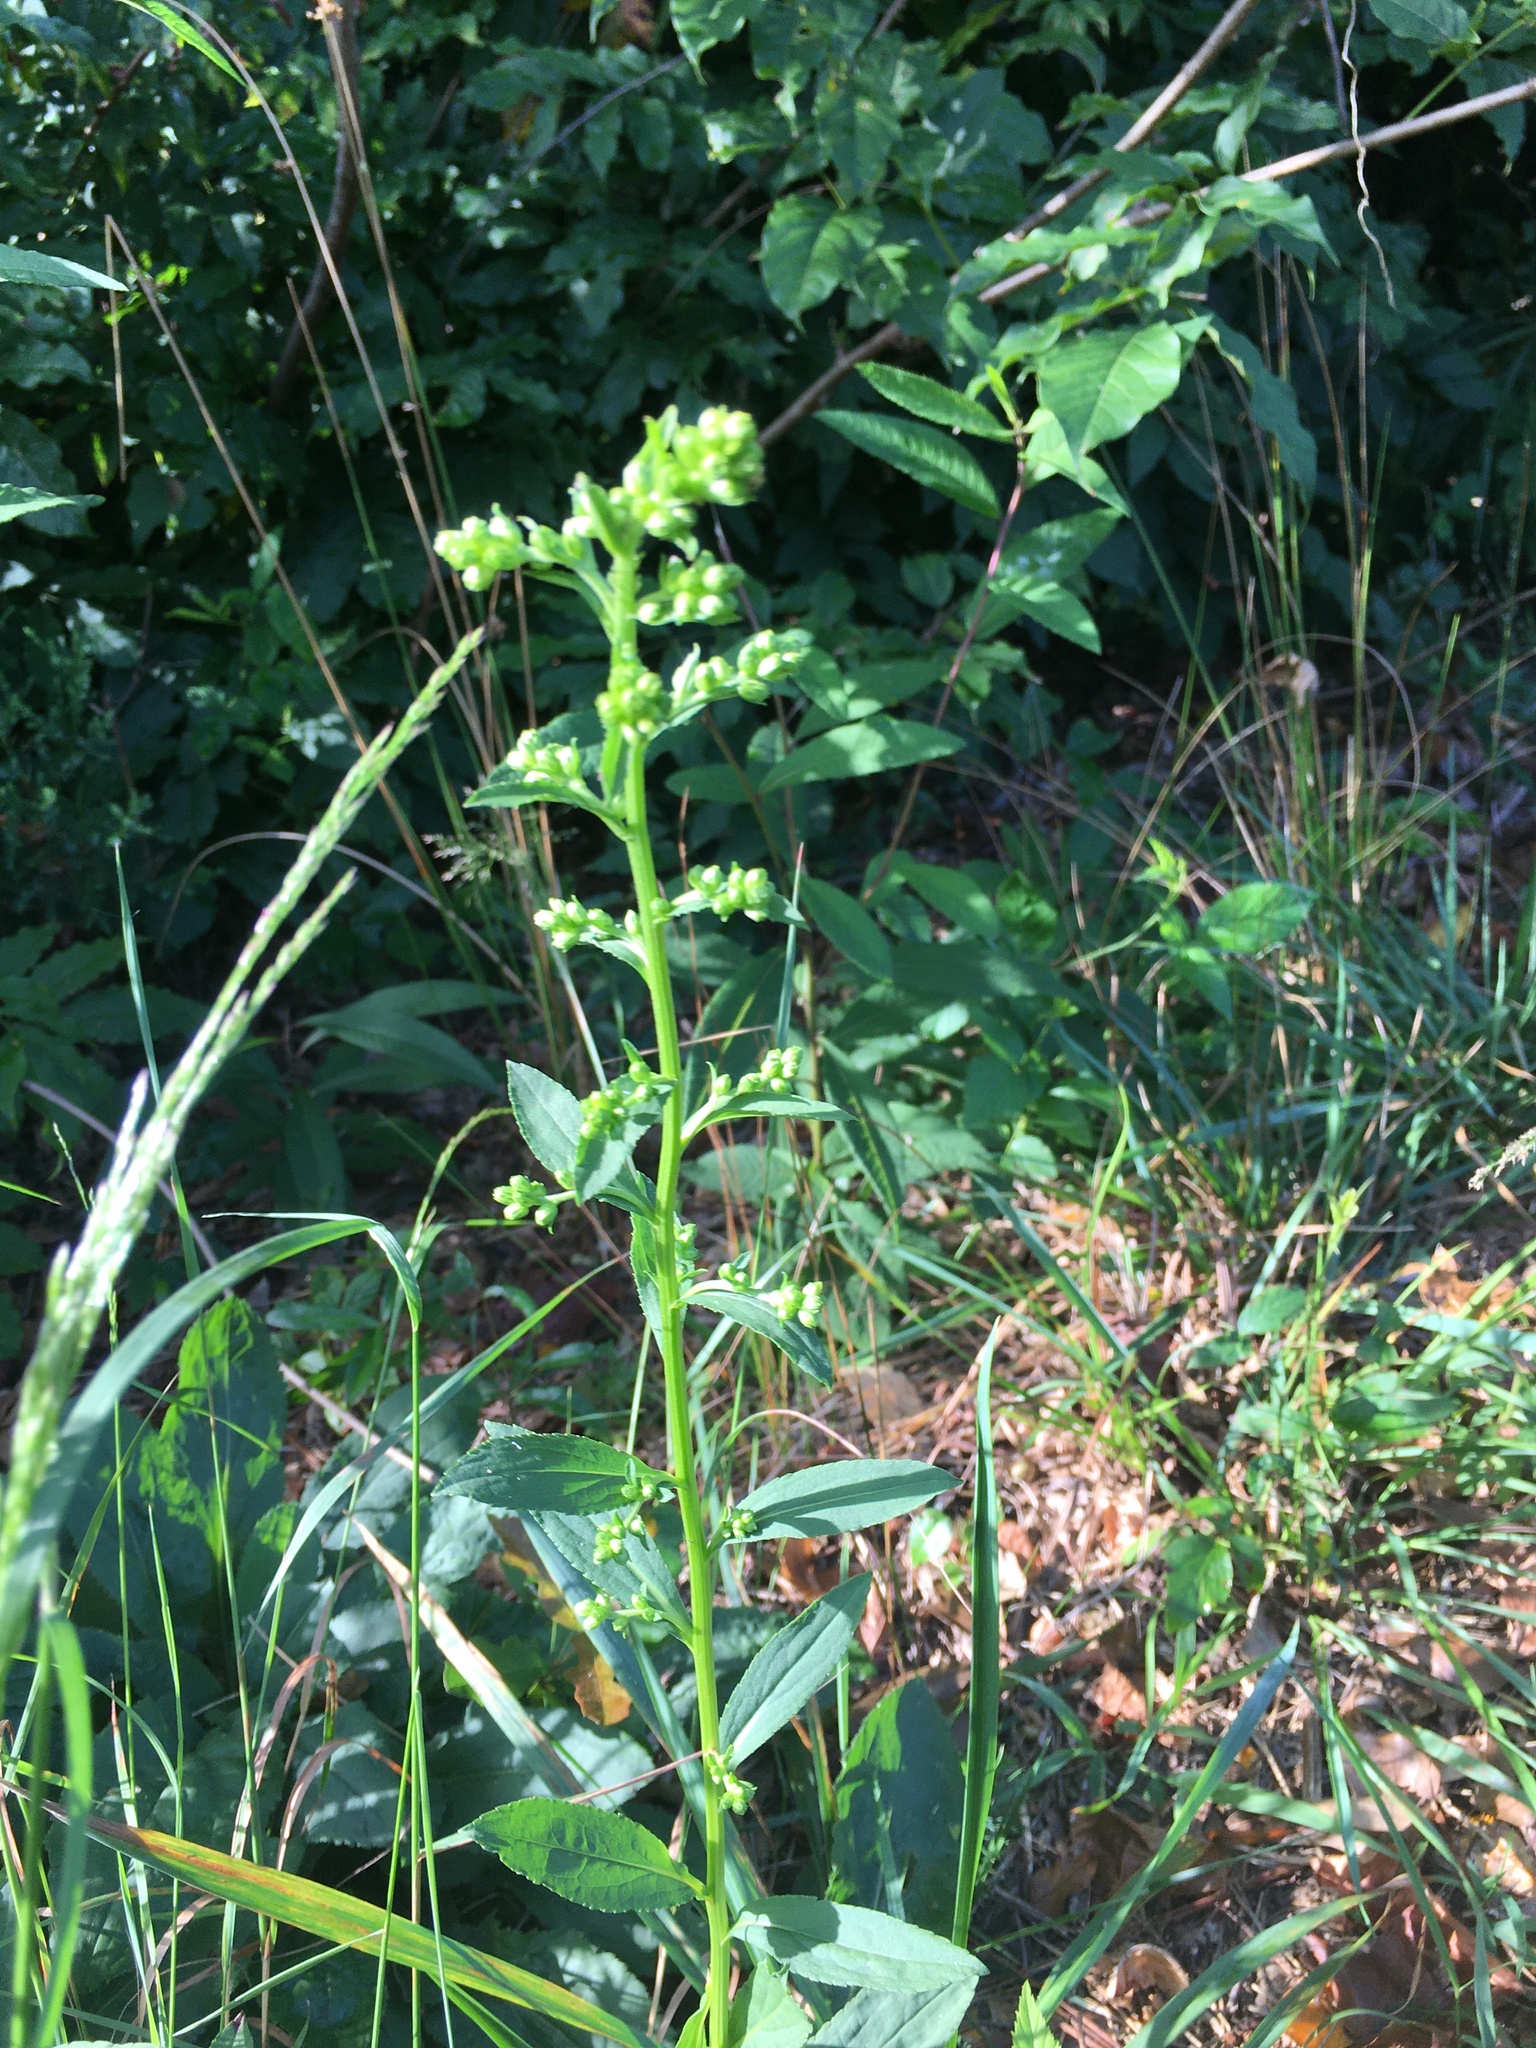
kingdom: Plantae
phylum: Tracheophyta
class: Magnoliopsida
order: Asterales
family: Asteraceae
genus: Solidago
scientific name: Solidago patula
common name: Rough-leaf goldenrod
